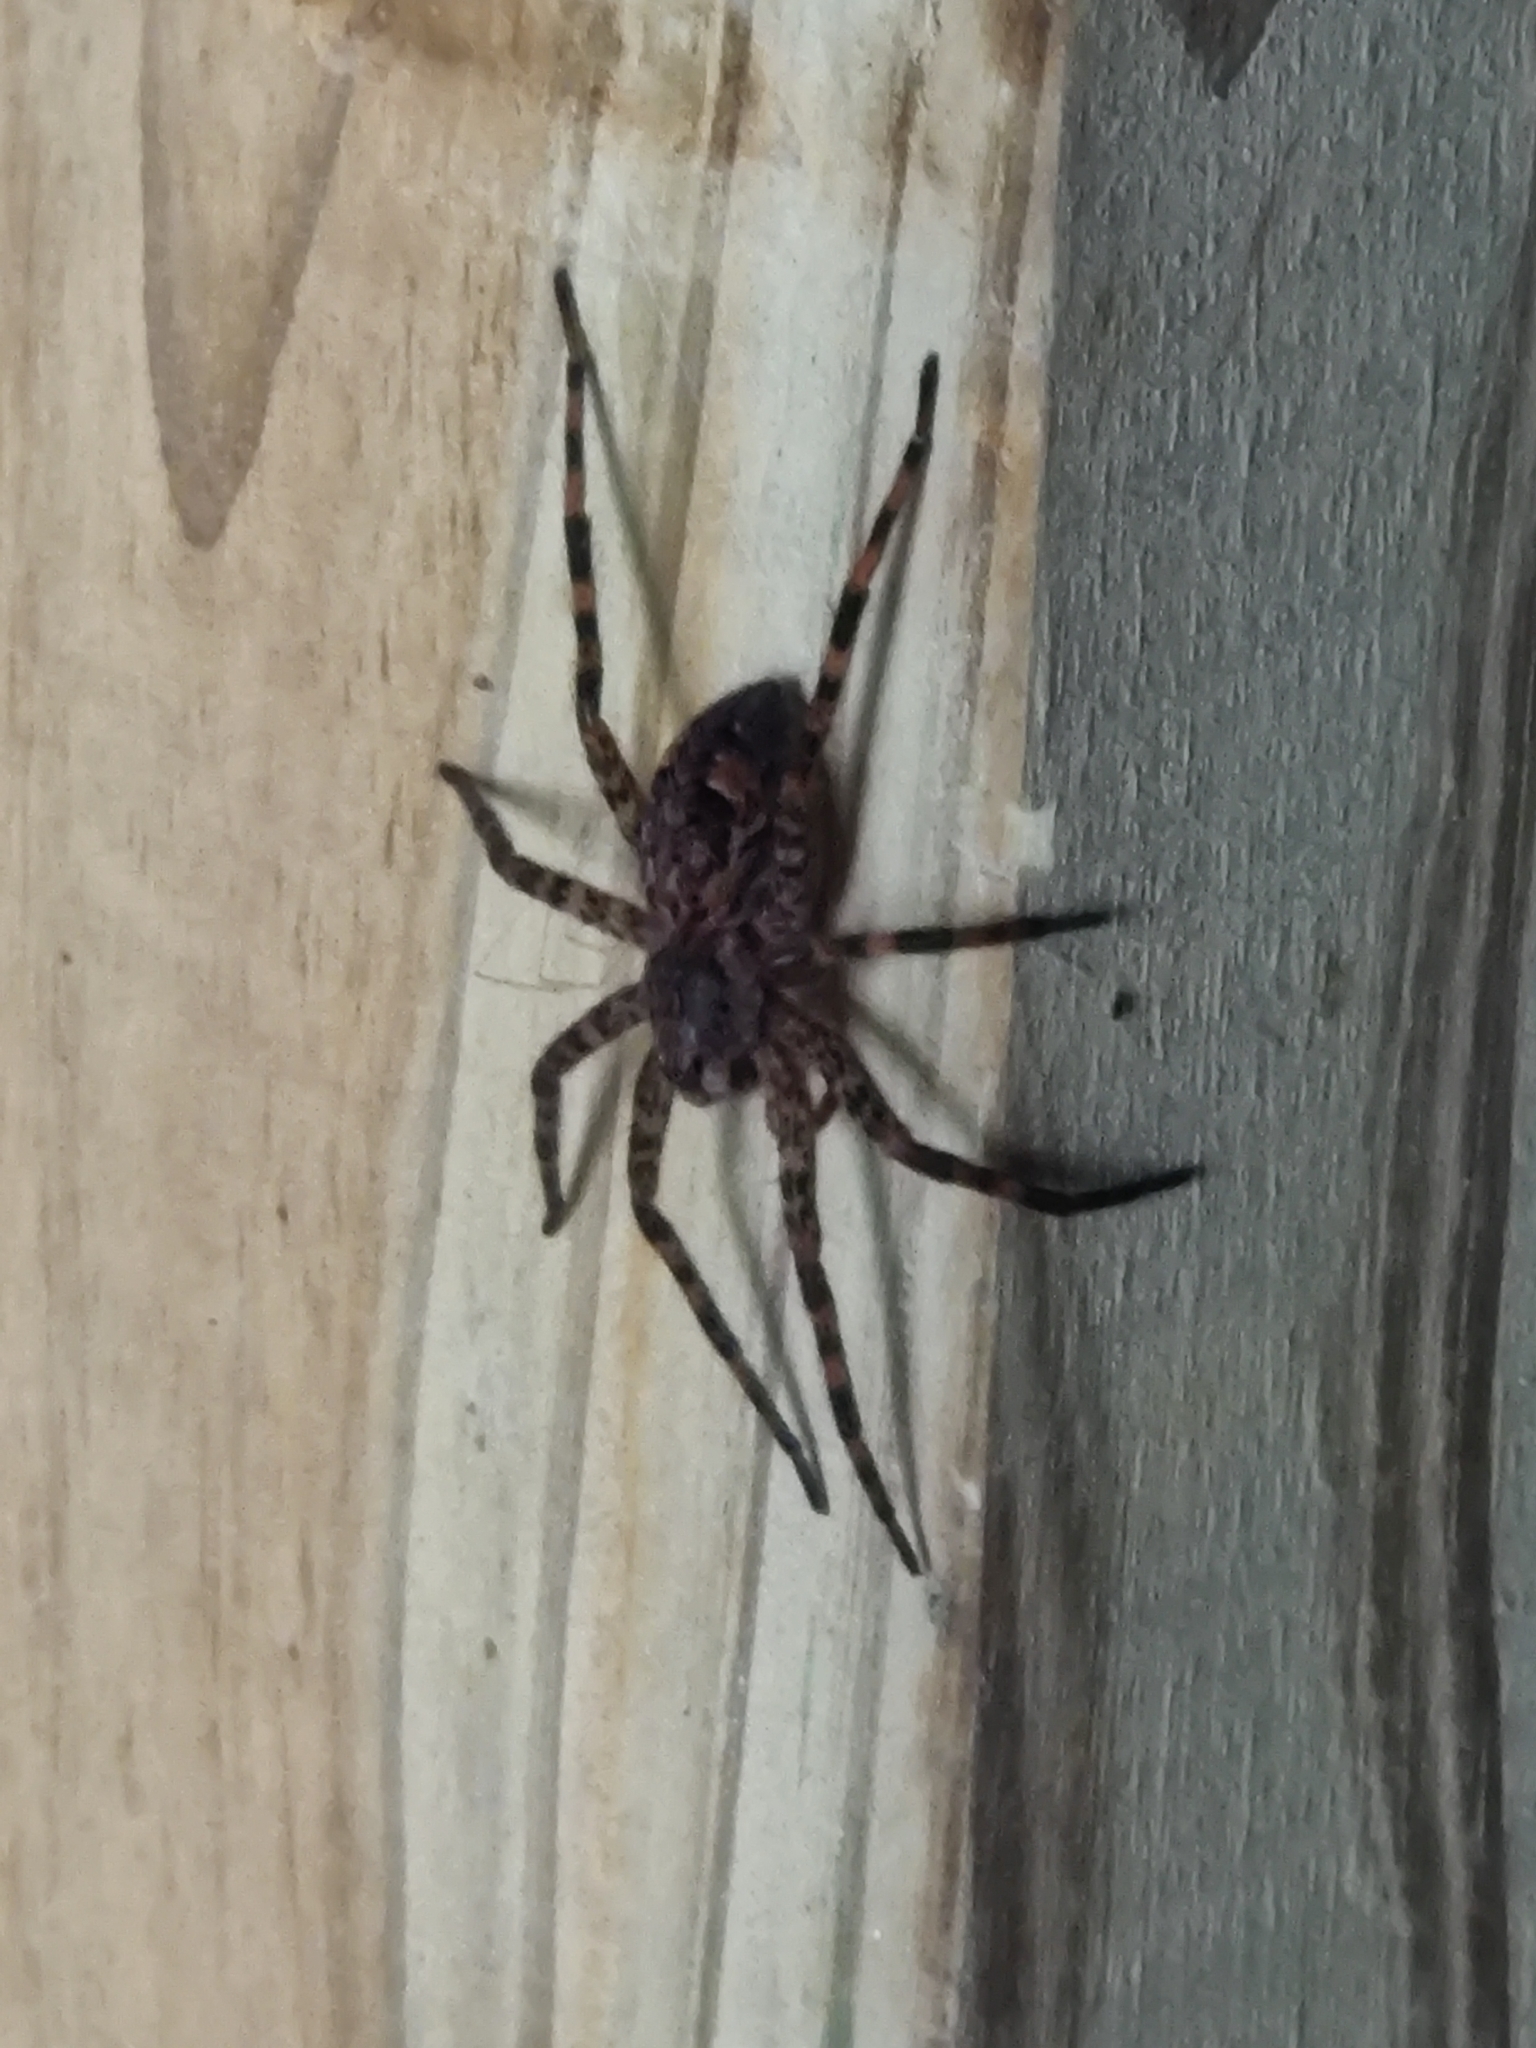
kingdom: Animalia
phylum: Arthropoda
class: Arachnida
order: Araneae
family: Pisauridae
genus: Dolomedes
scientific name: Dolomedes tenebrosus
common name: Dark fishing spider
